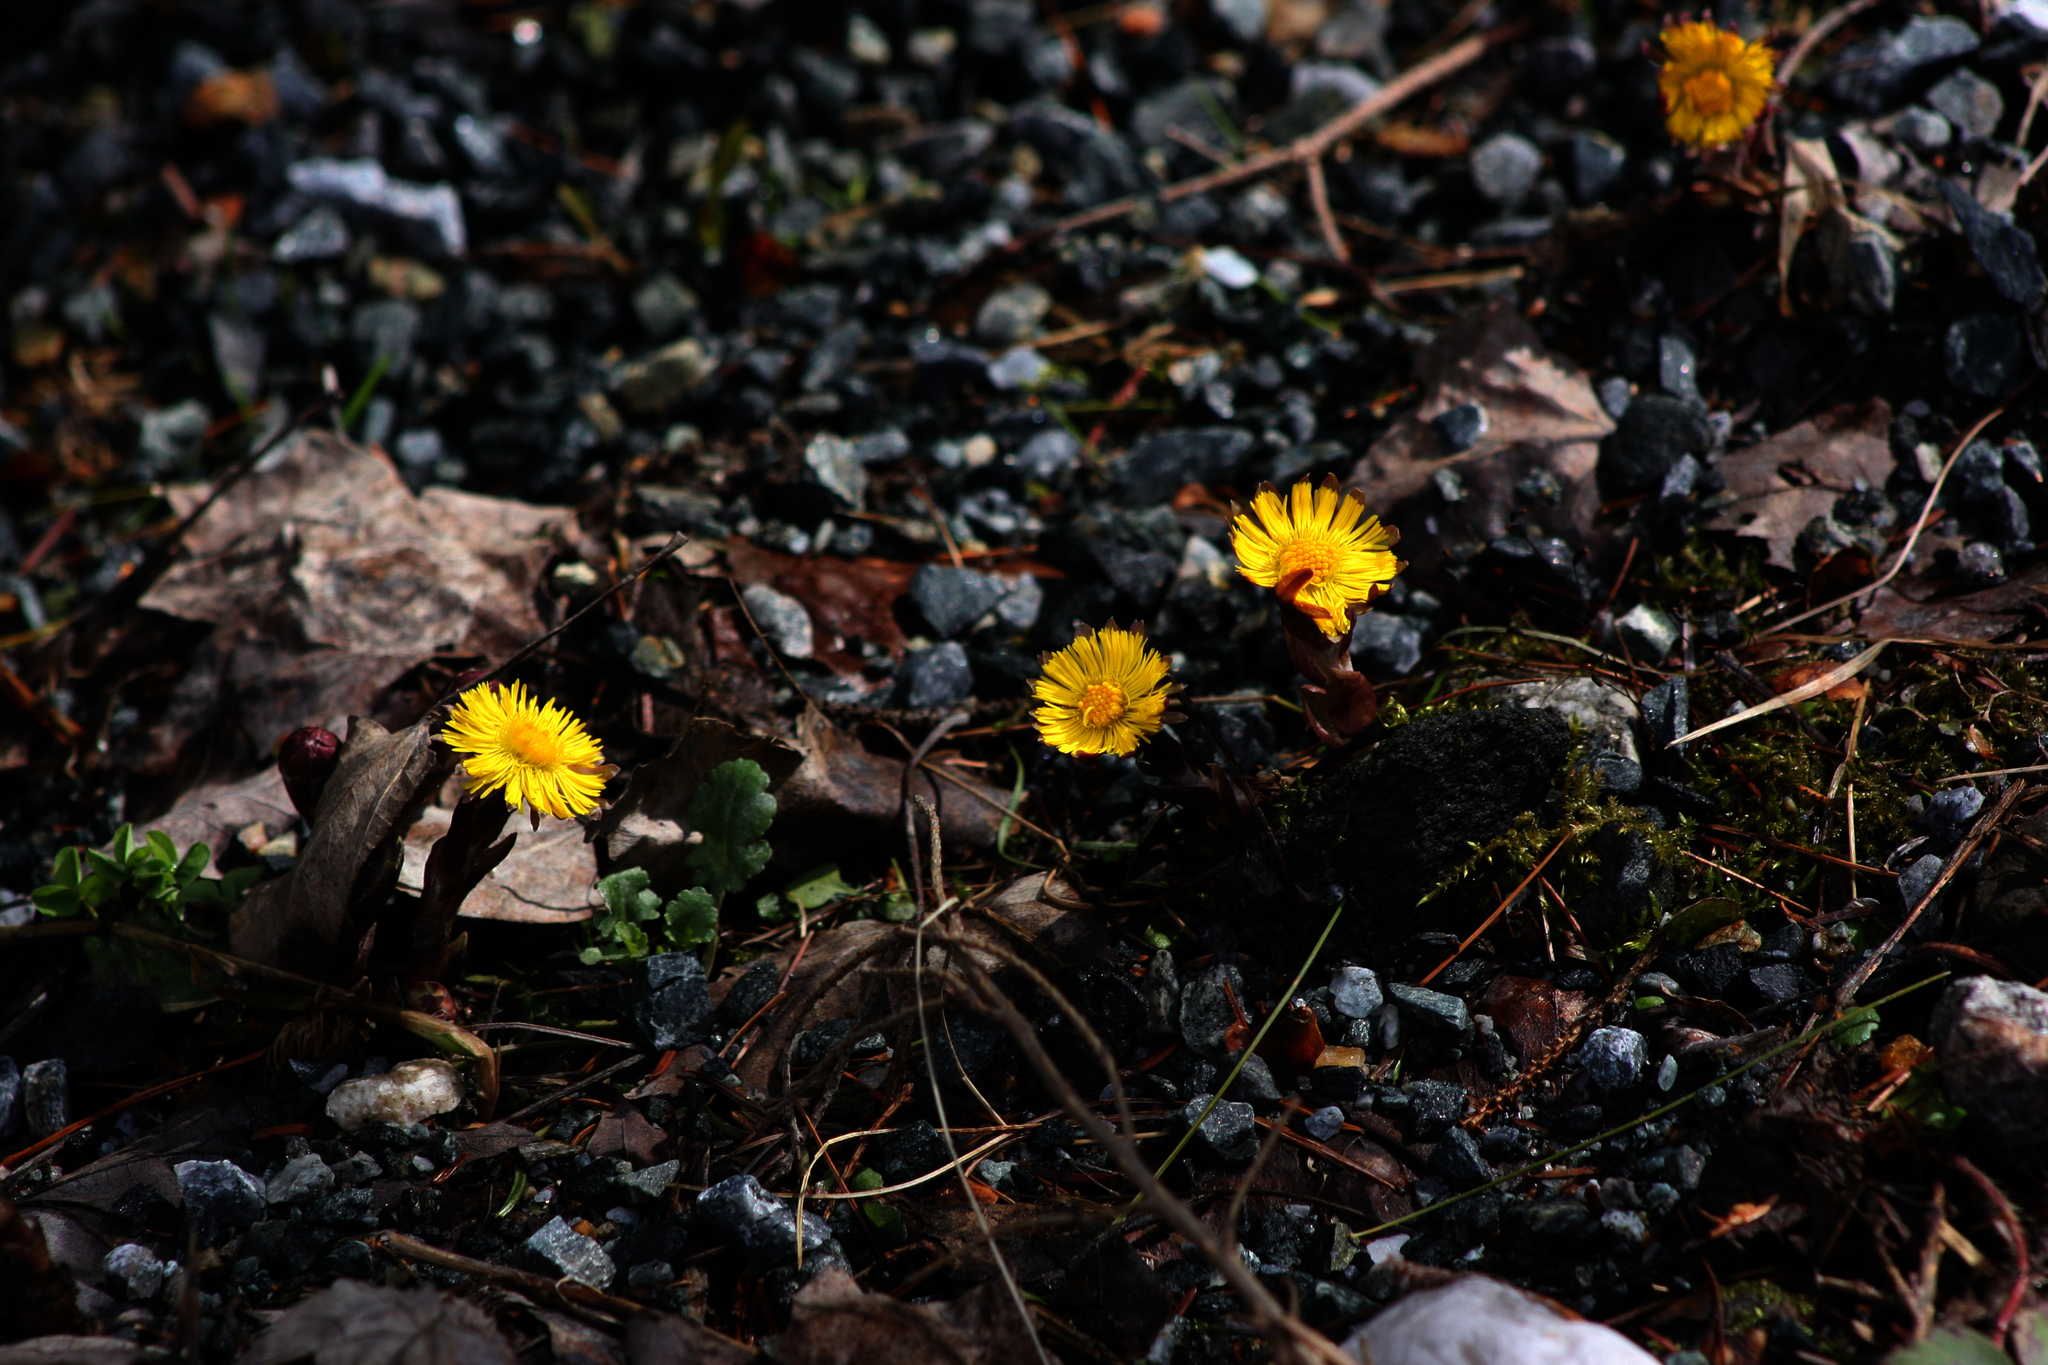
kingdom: Plantae
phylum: Tracheophyta
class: Magnoliopsida
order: Asterales
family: Asteraceae
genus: Tussilago
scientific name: Tussilago farfara
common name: Coltsfoot
